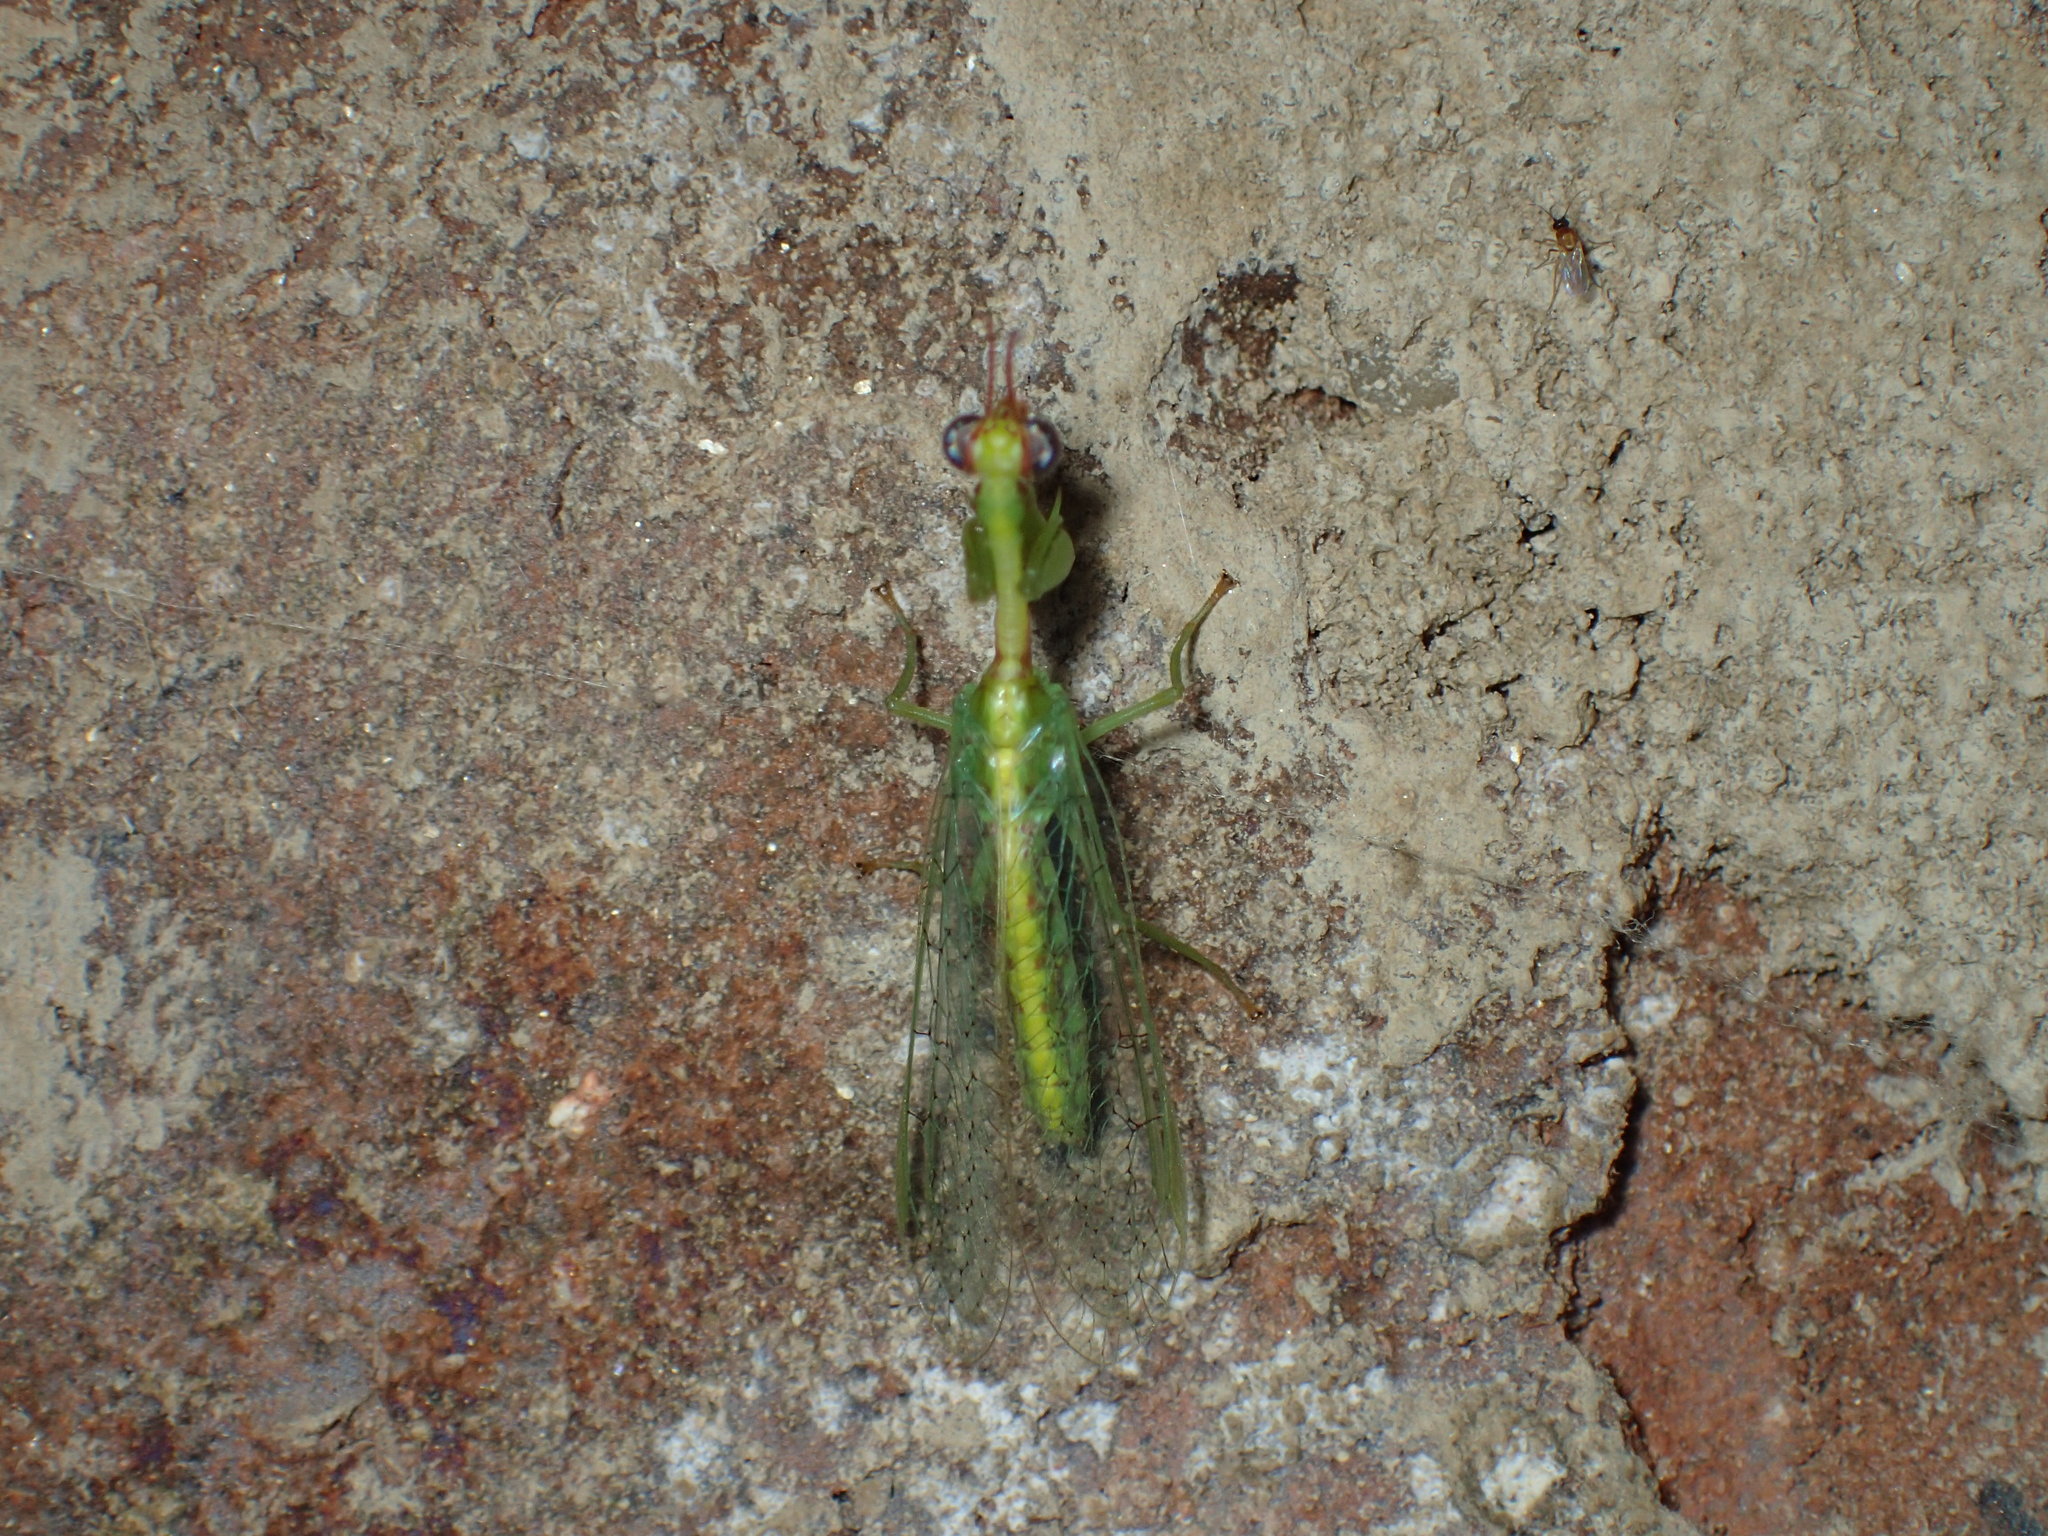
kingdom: Animalia
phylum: Arthropoda
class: Insecta
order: Neuroptera
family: Mantispidae
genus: Zeugomantispa
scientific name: Zeugomantispa minuta
